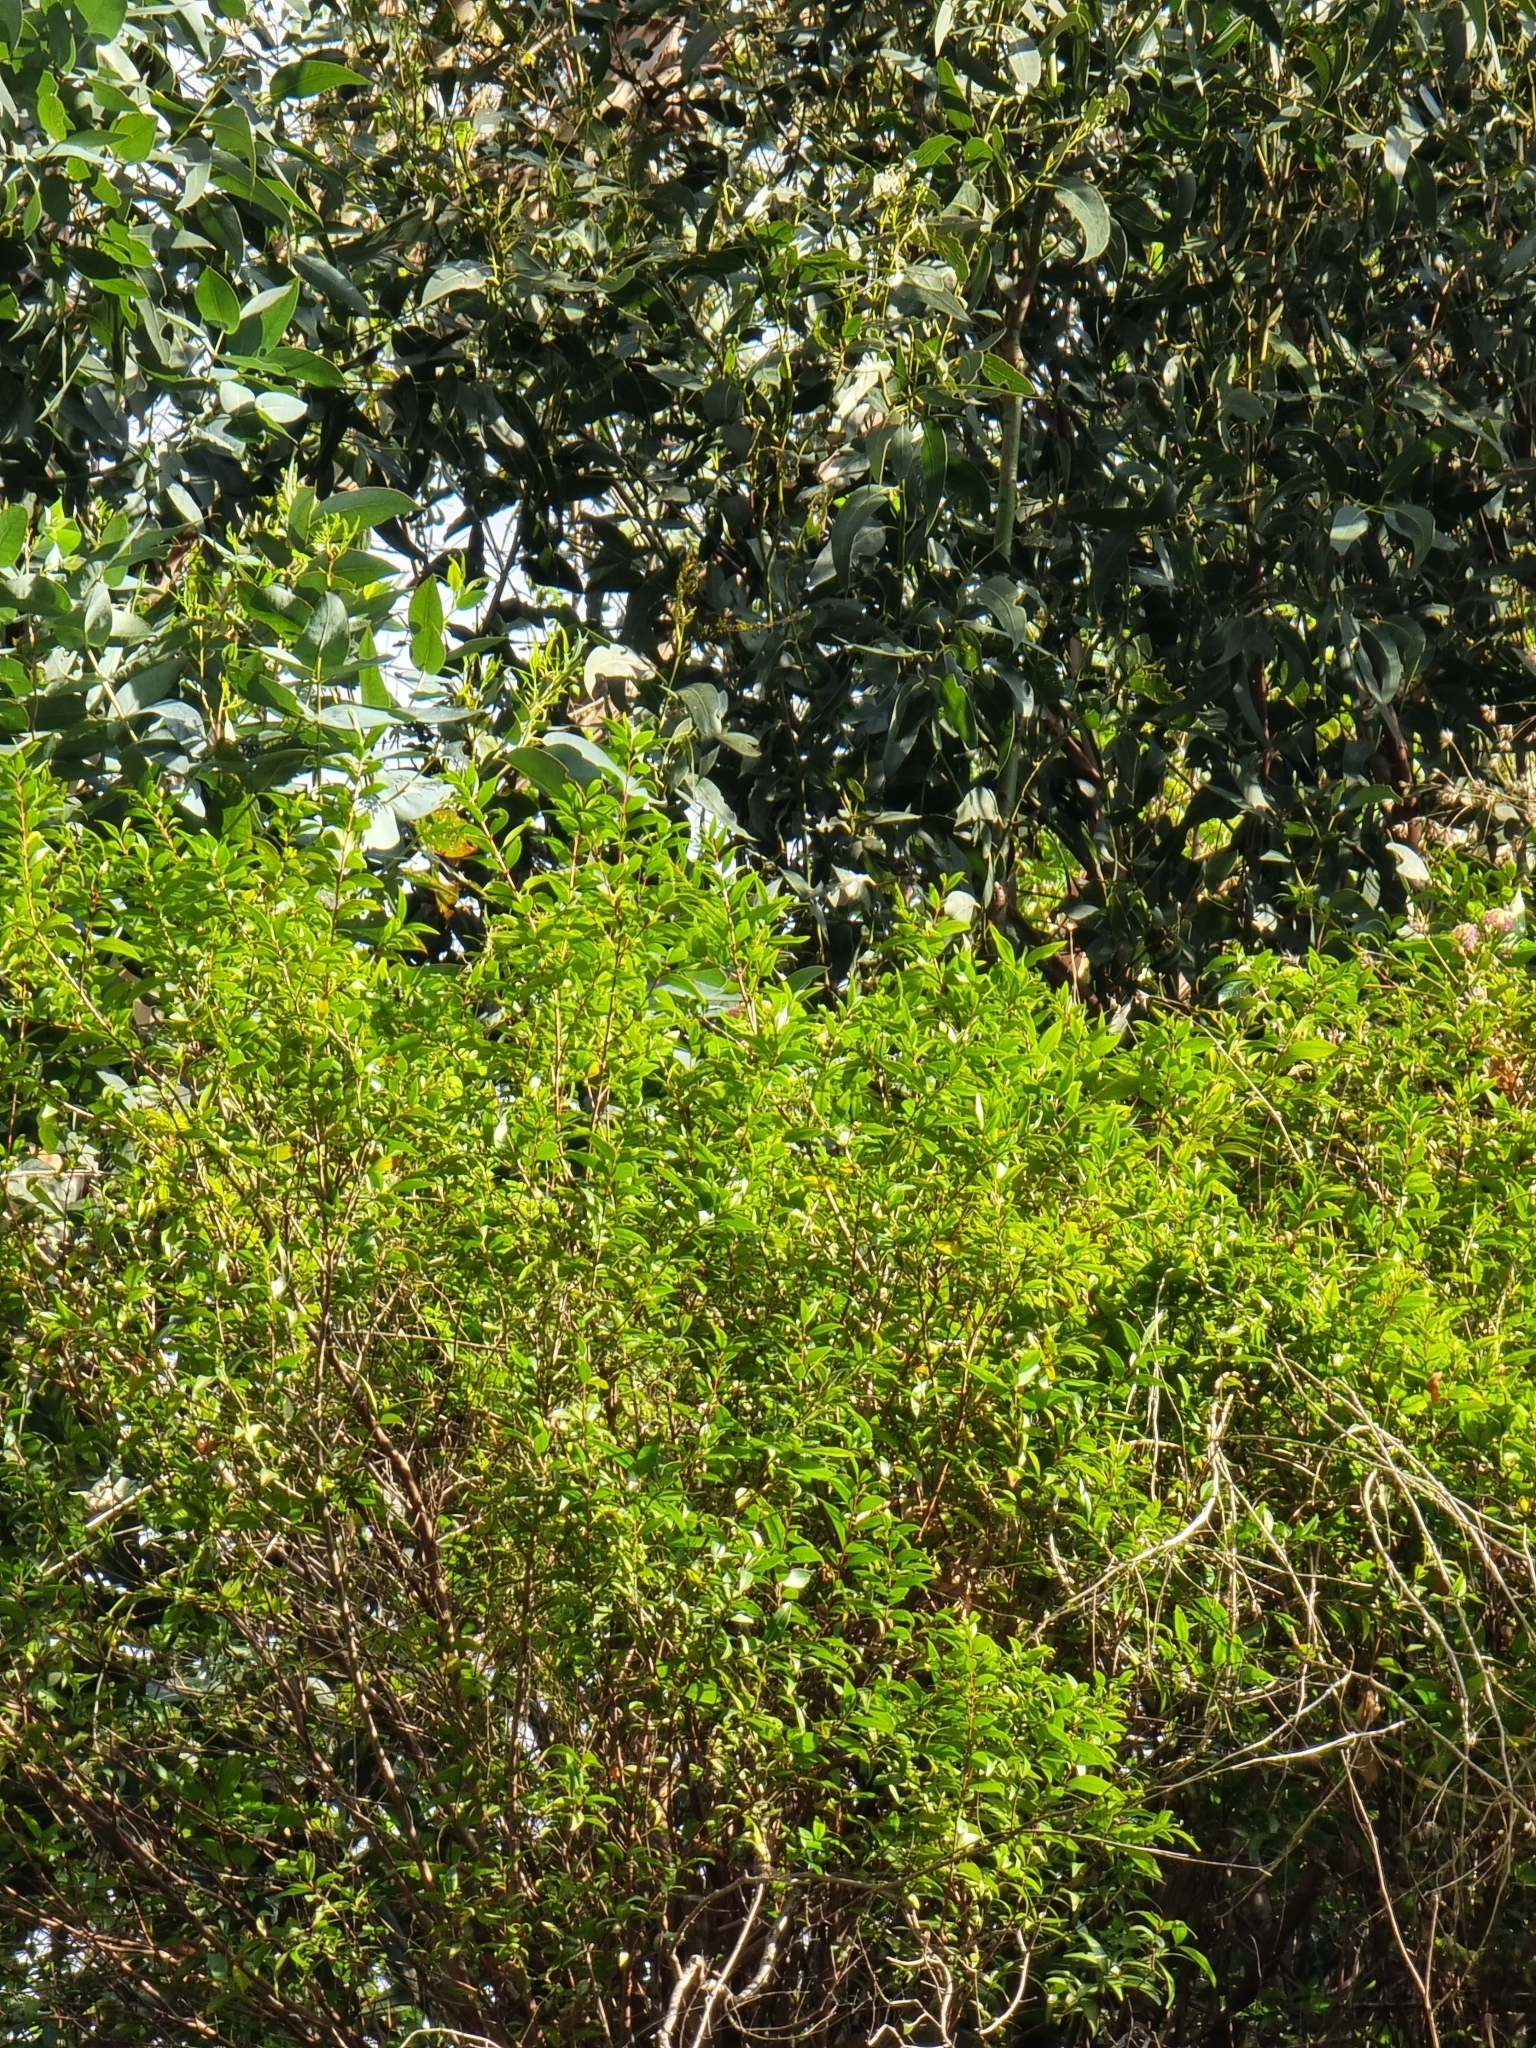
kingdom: Plantae
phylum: Tracheophyta
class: Magnoliopsida
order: Myrtales
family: Myrtaceae
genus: Myrtus
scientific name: Myrtus communis
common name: Myrtle
